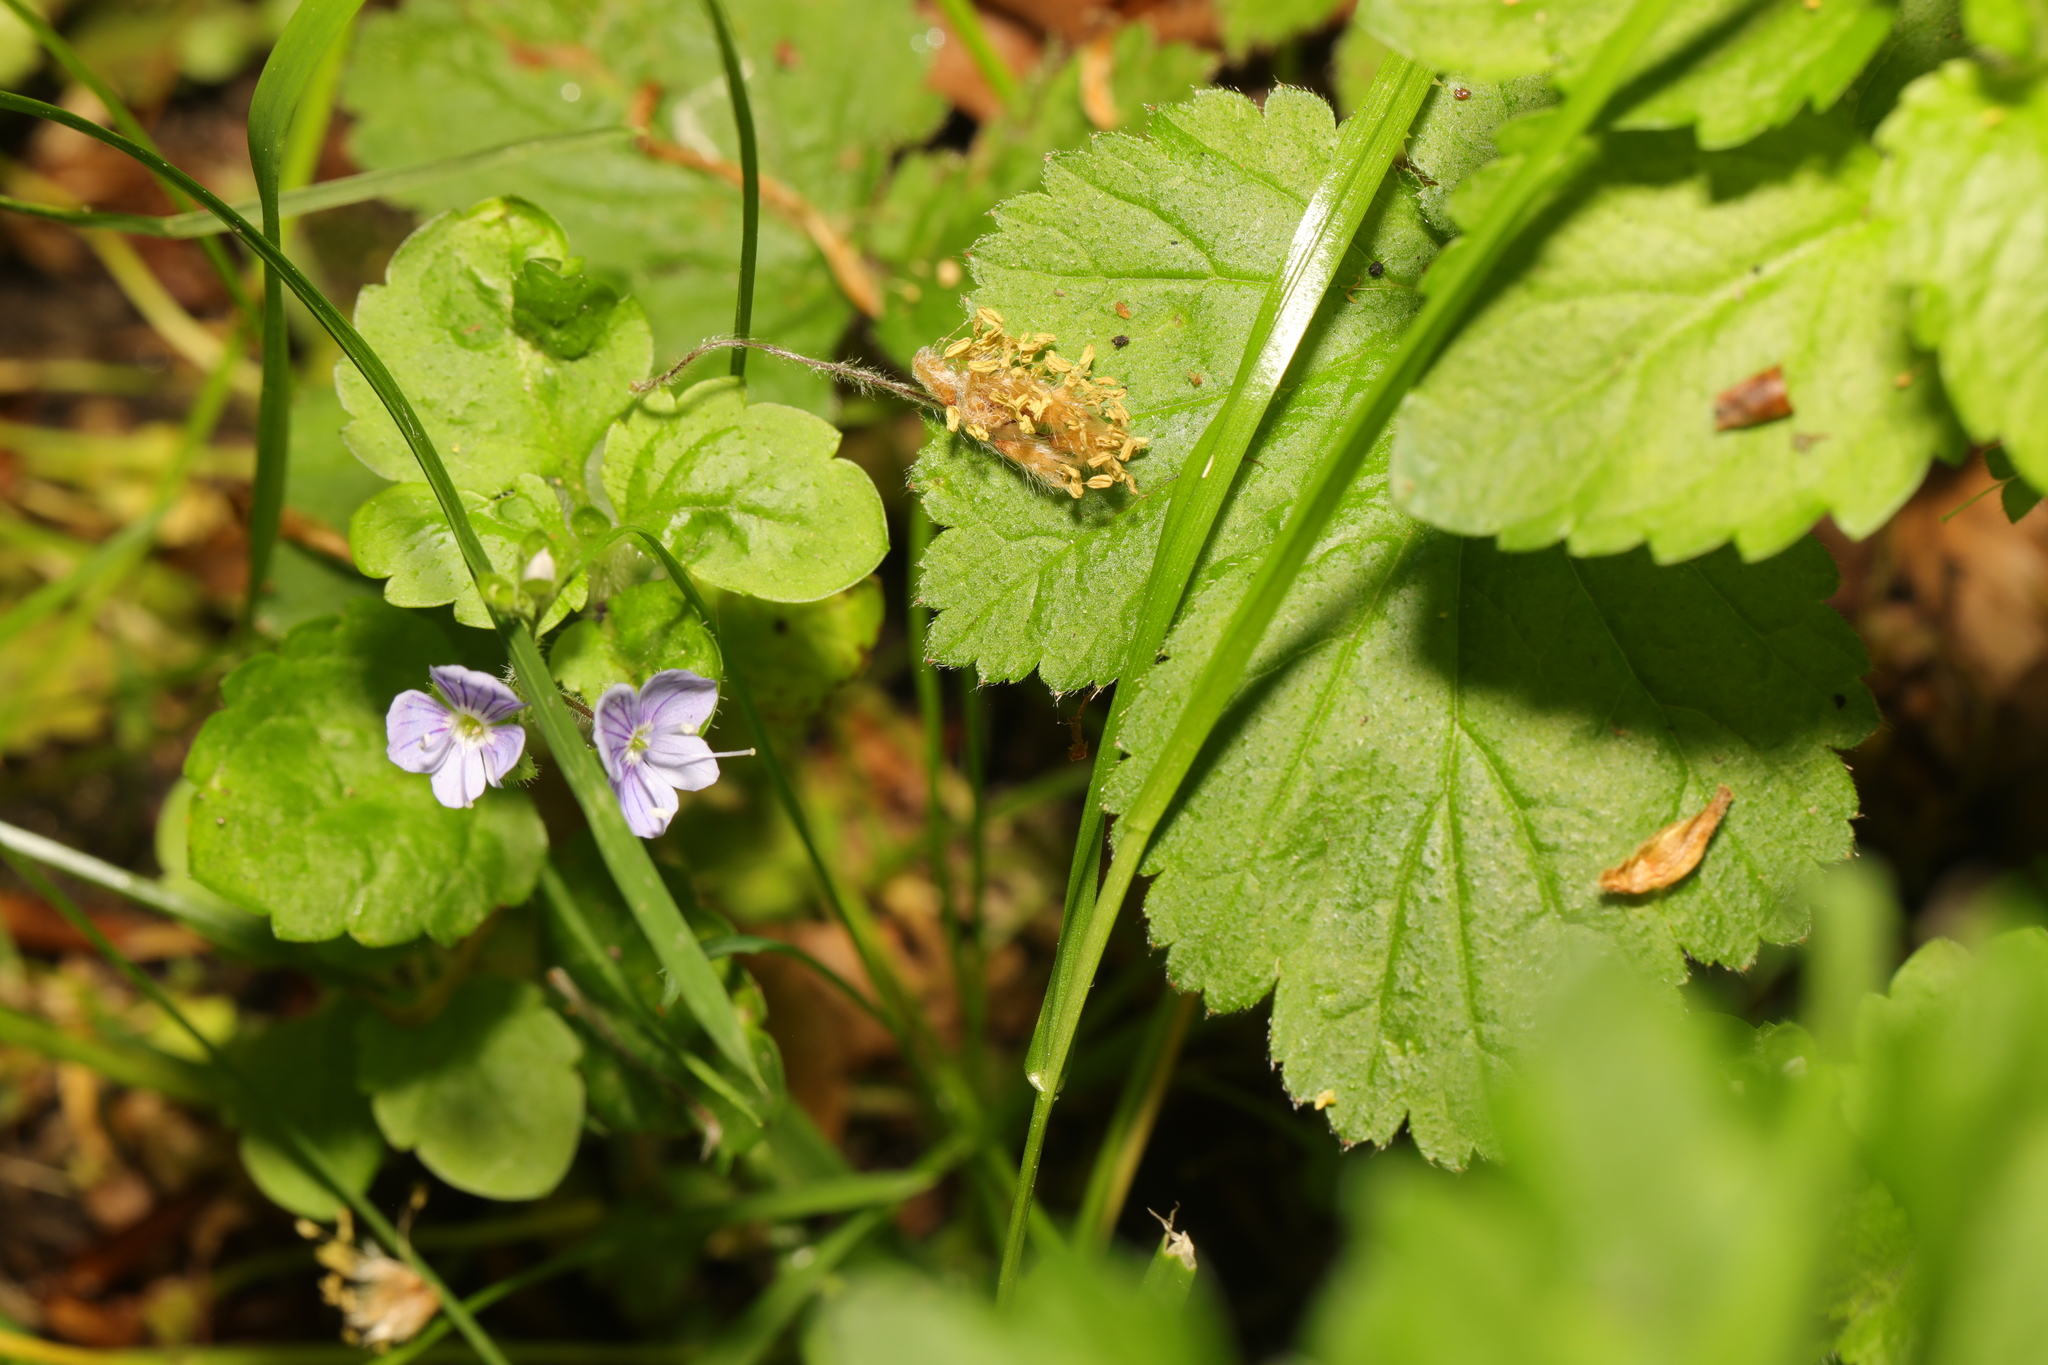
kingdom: Plantae
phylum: Tracheophyta
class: Magnoliopsida
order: Lamiales
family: Plantaginaceae
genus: Veronica
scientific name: Veronica montana
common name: Wood speedwell
